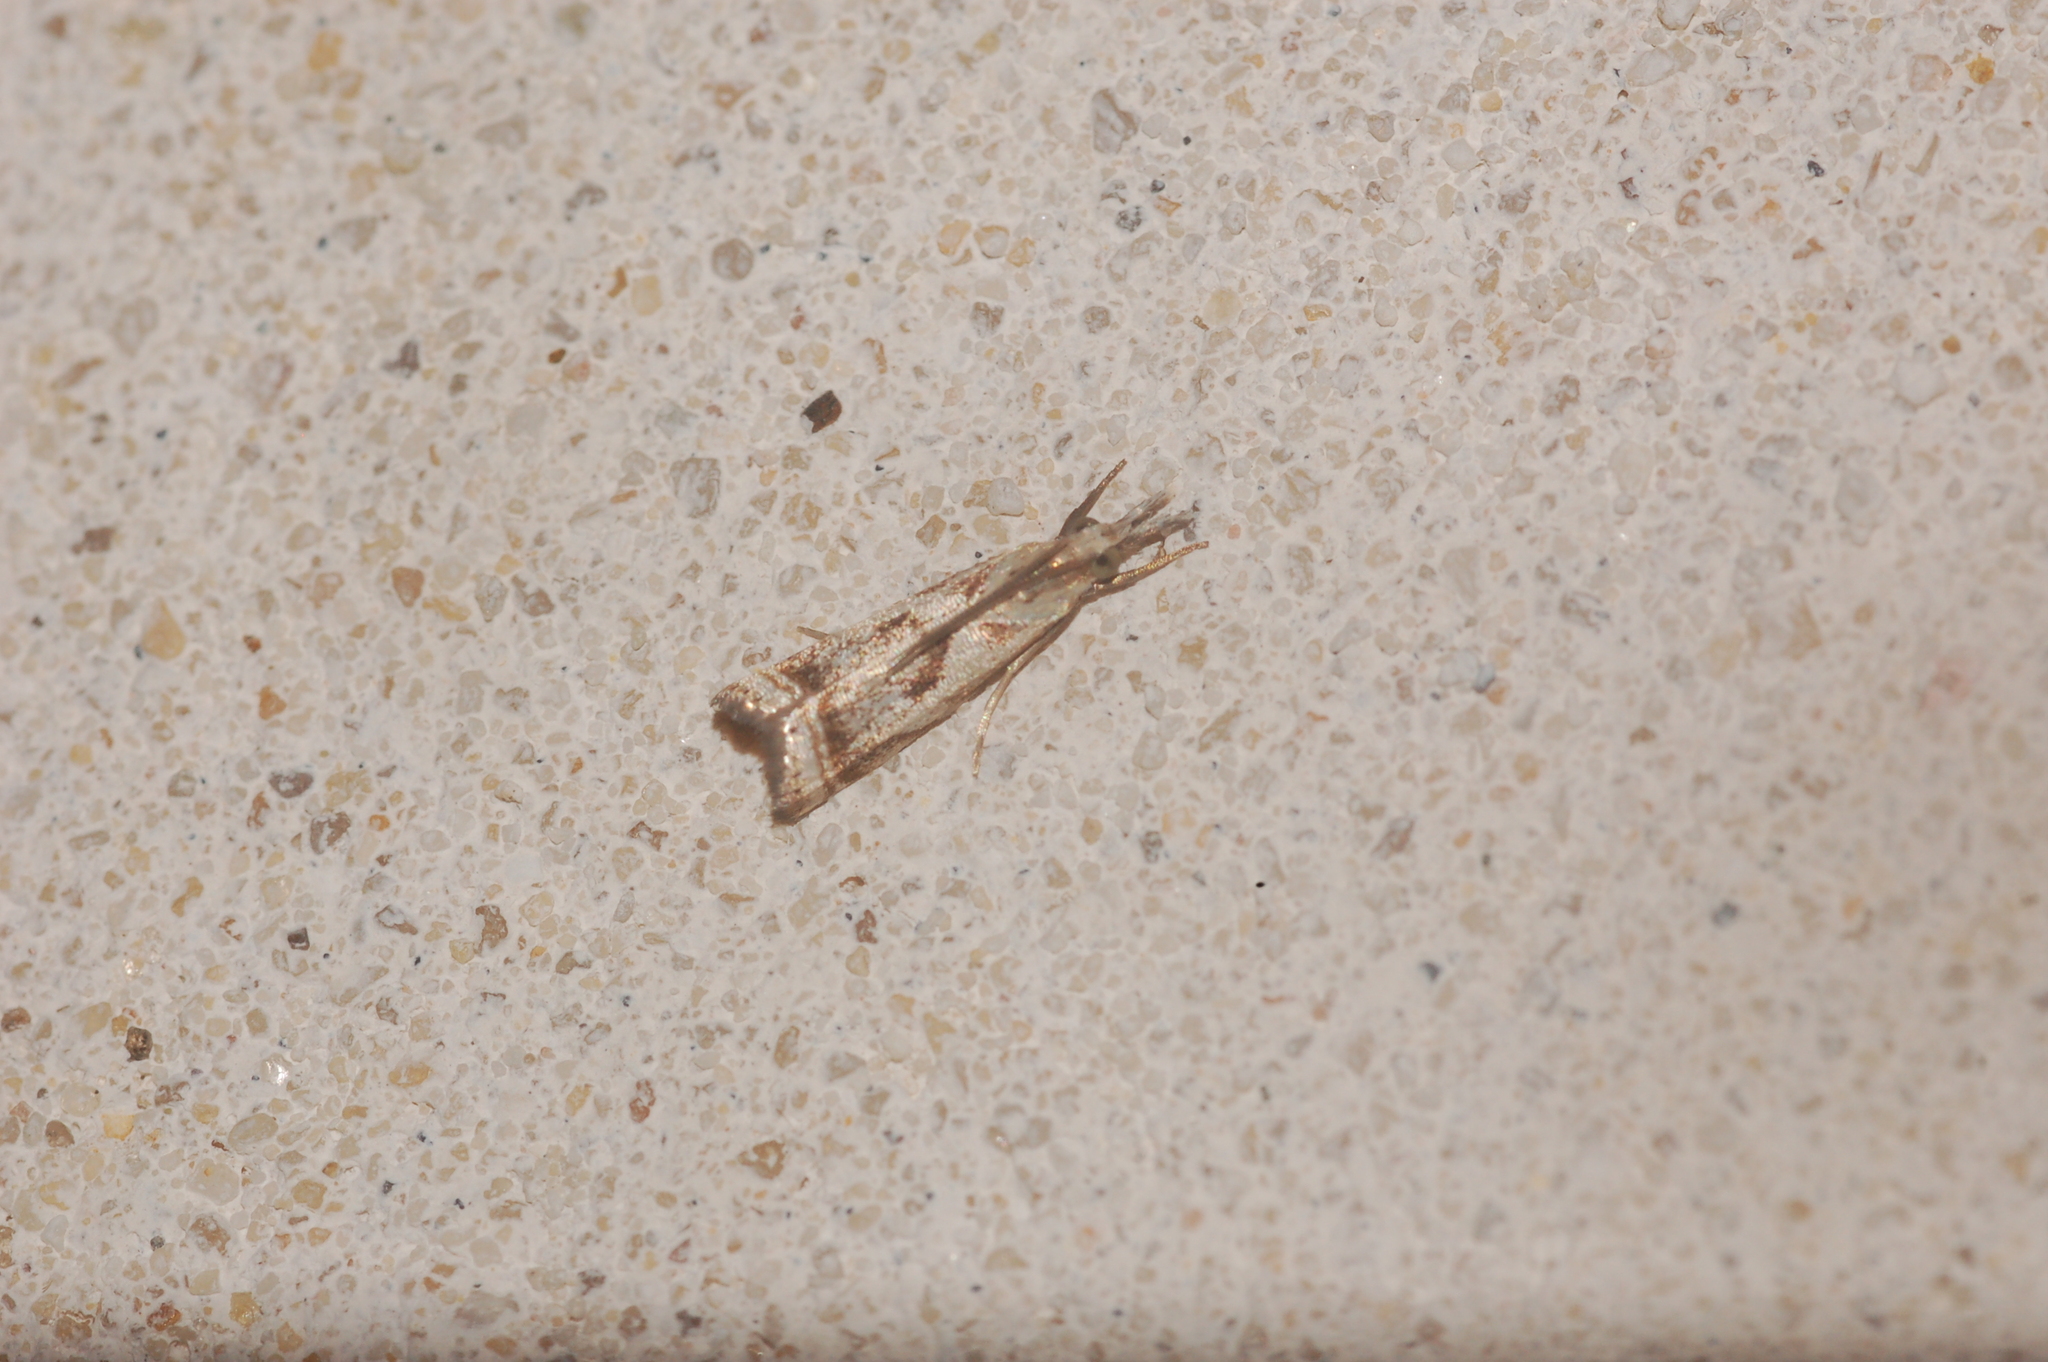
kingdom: Animalia
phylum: Arthropoda
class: Insecta
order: Lepidoptera
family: Crambidae
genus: Microcrambus
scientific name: Microcrambus elegans
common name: Elegant grass-veneer
